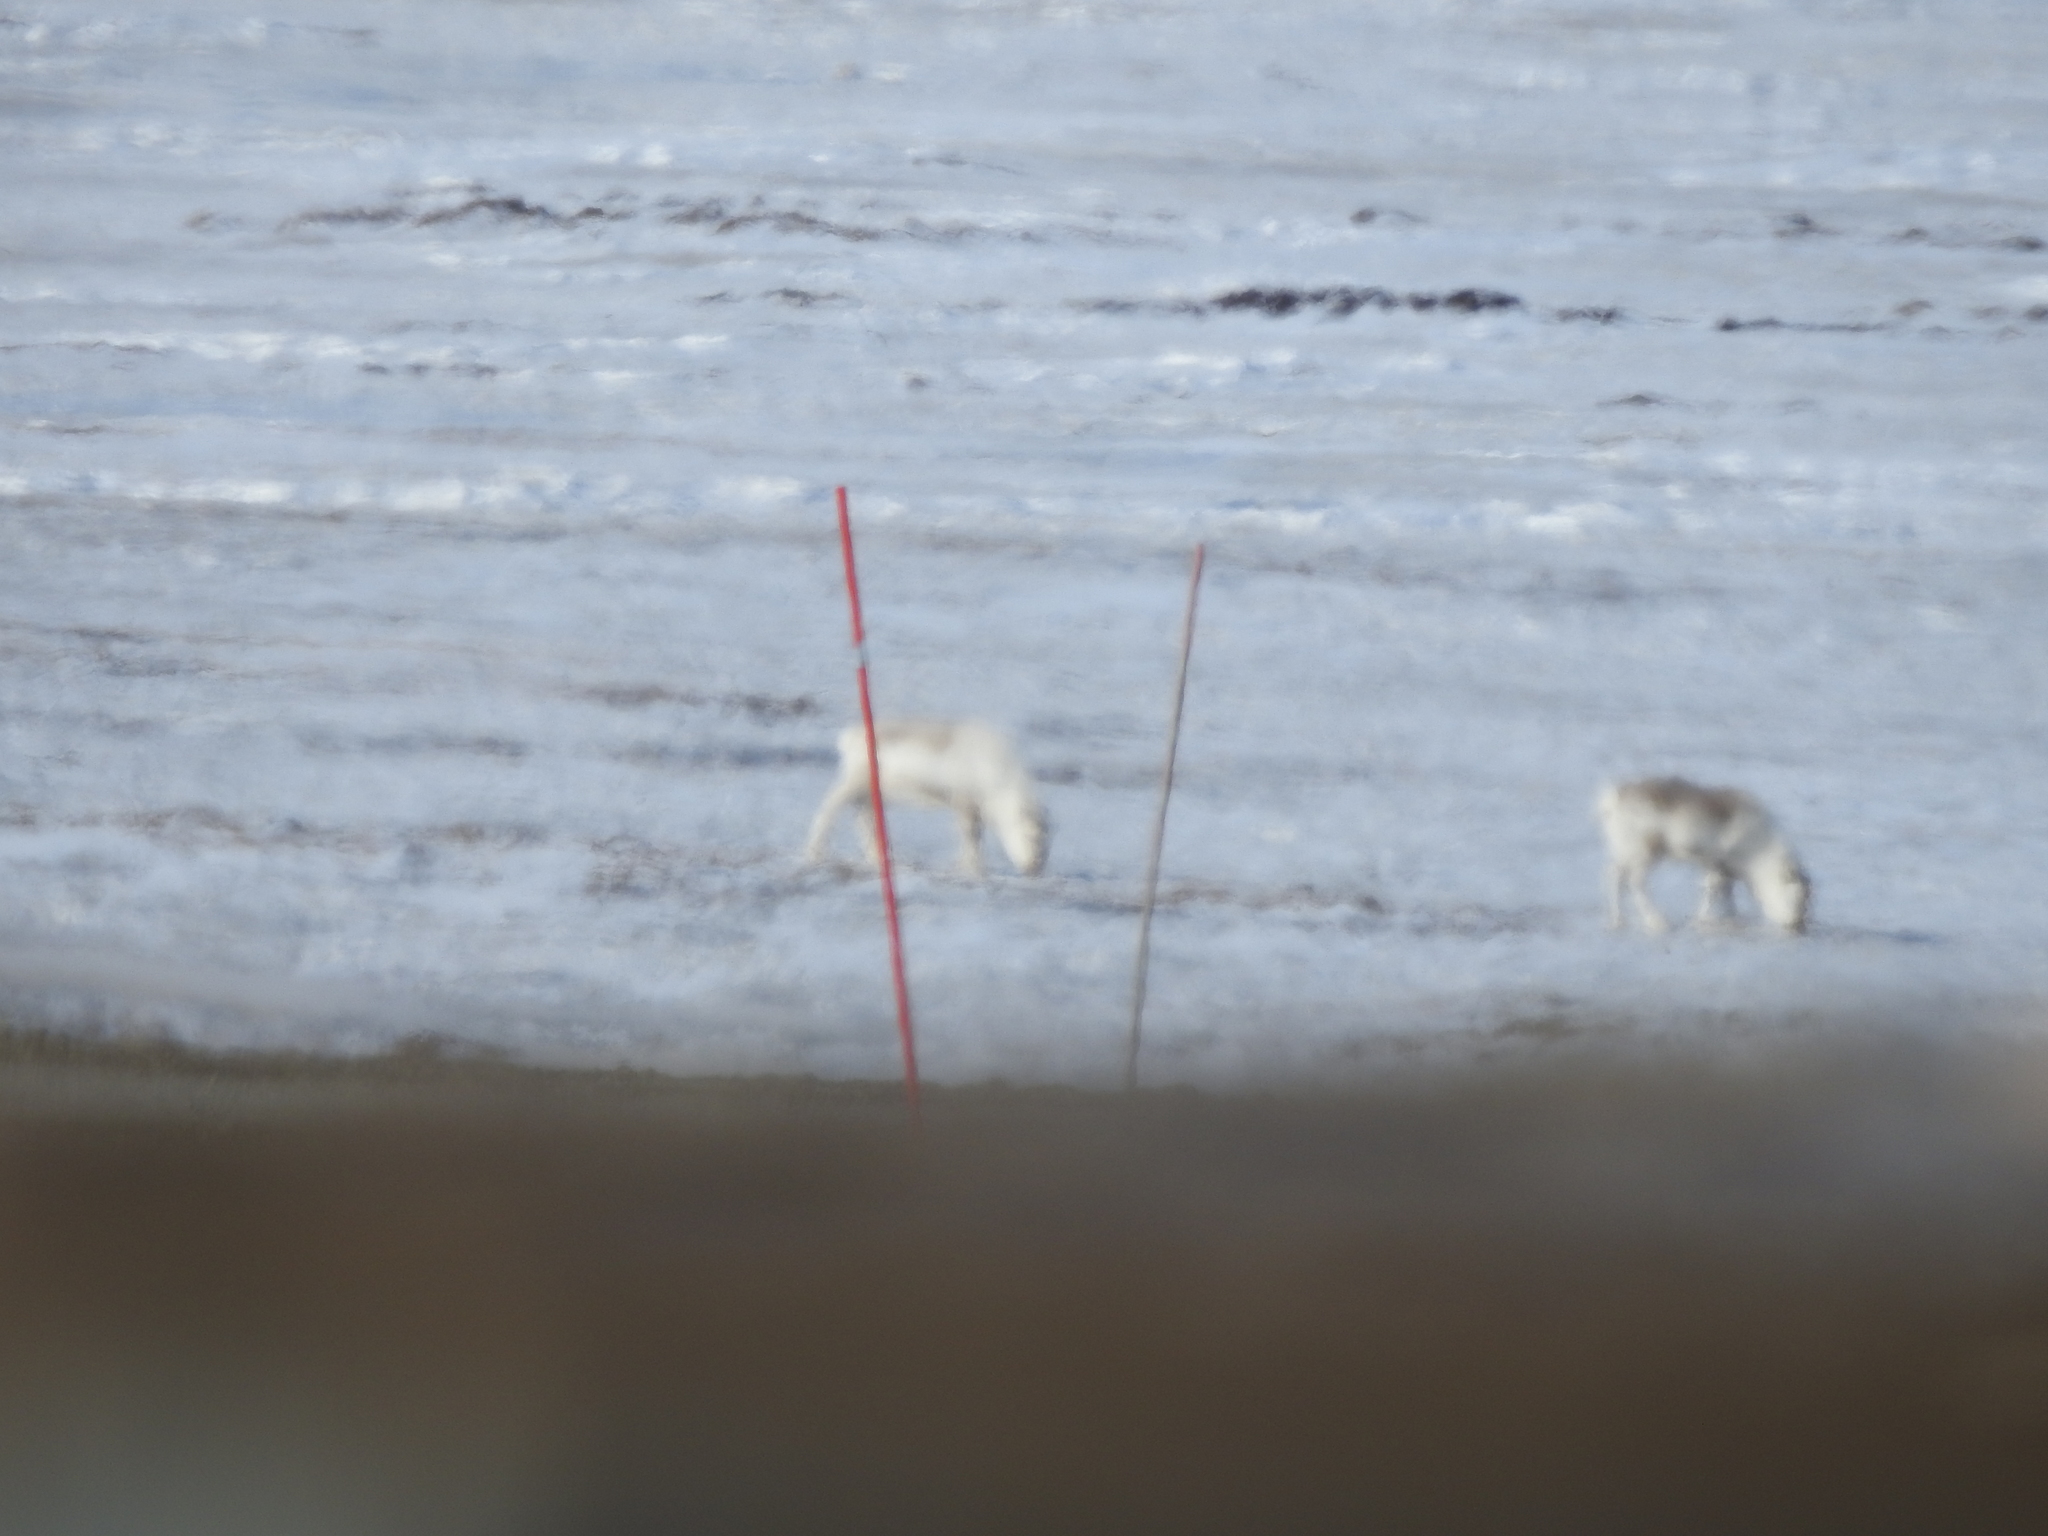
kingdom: Animalia
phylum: Chordata
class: Mammalia
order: Artiodactyla
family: Cervidae
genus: Rangifer
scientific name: Rangifer tarandus
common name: Reindeer
